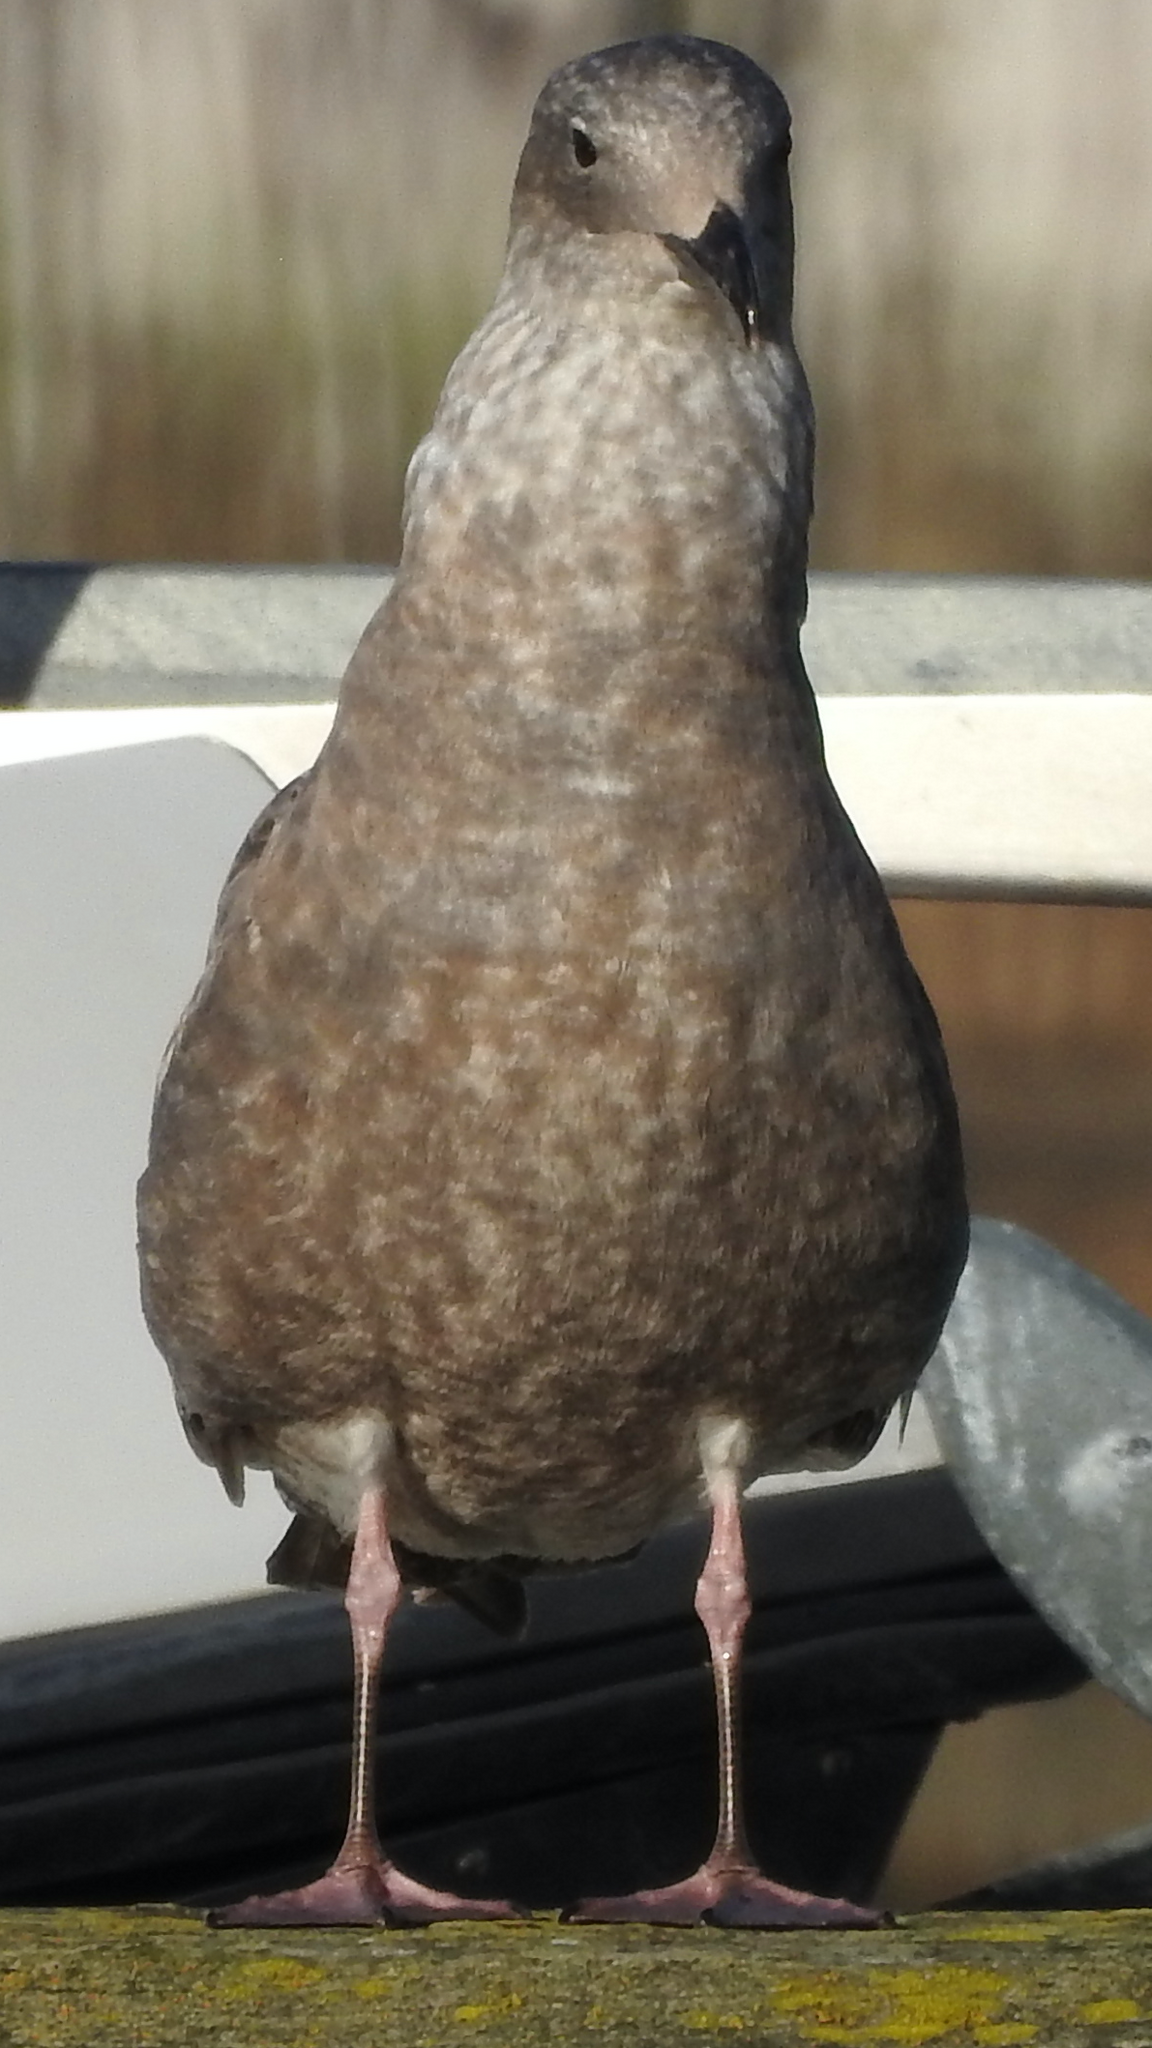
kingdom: Animalia
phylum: Chordata
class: Aves
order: Charadriiformes
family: Laridae
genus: Larus
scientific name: Larus occidentalis
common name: Western gull
